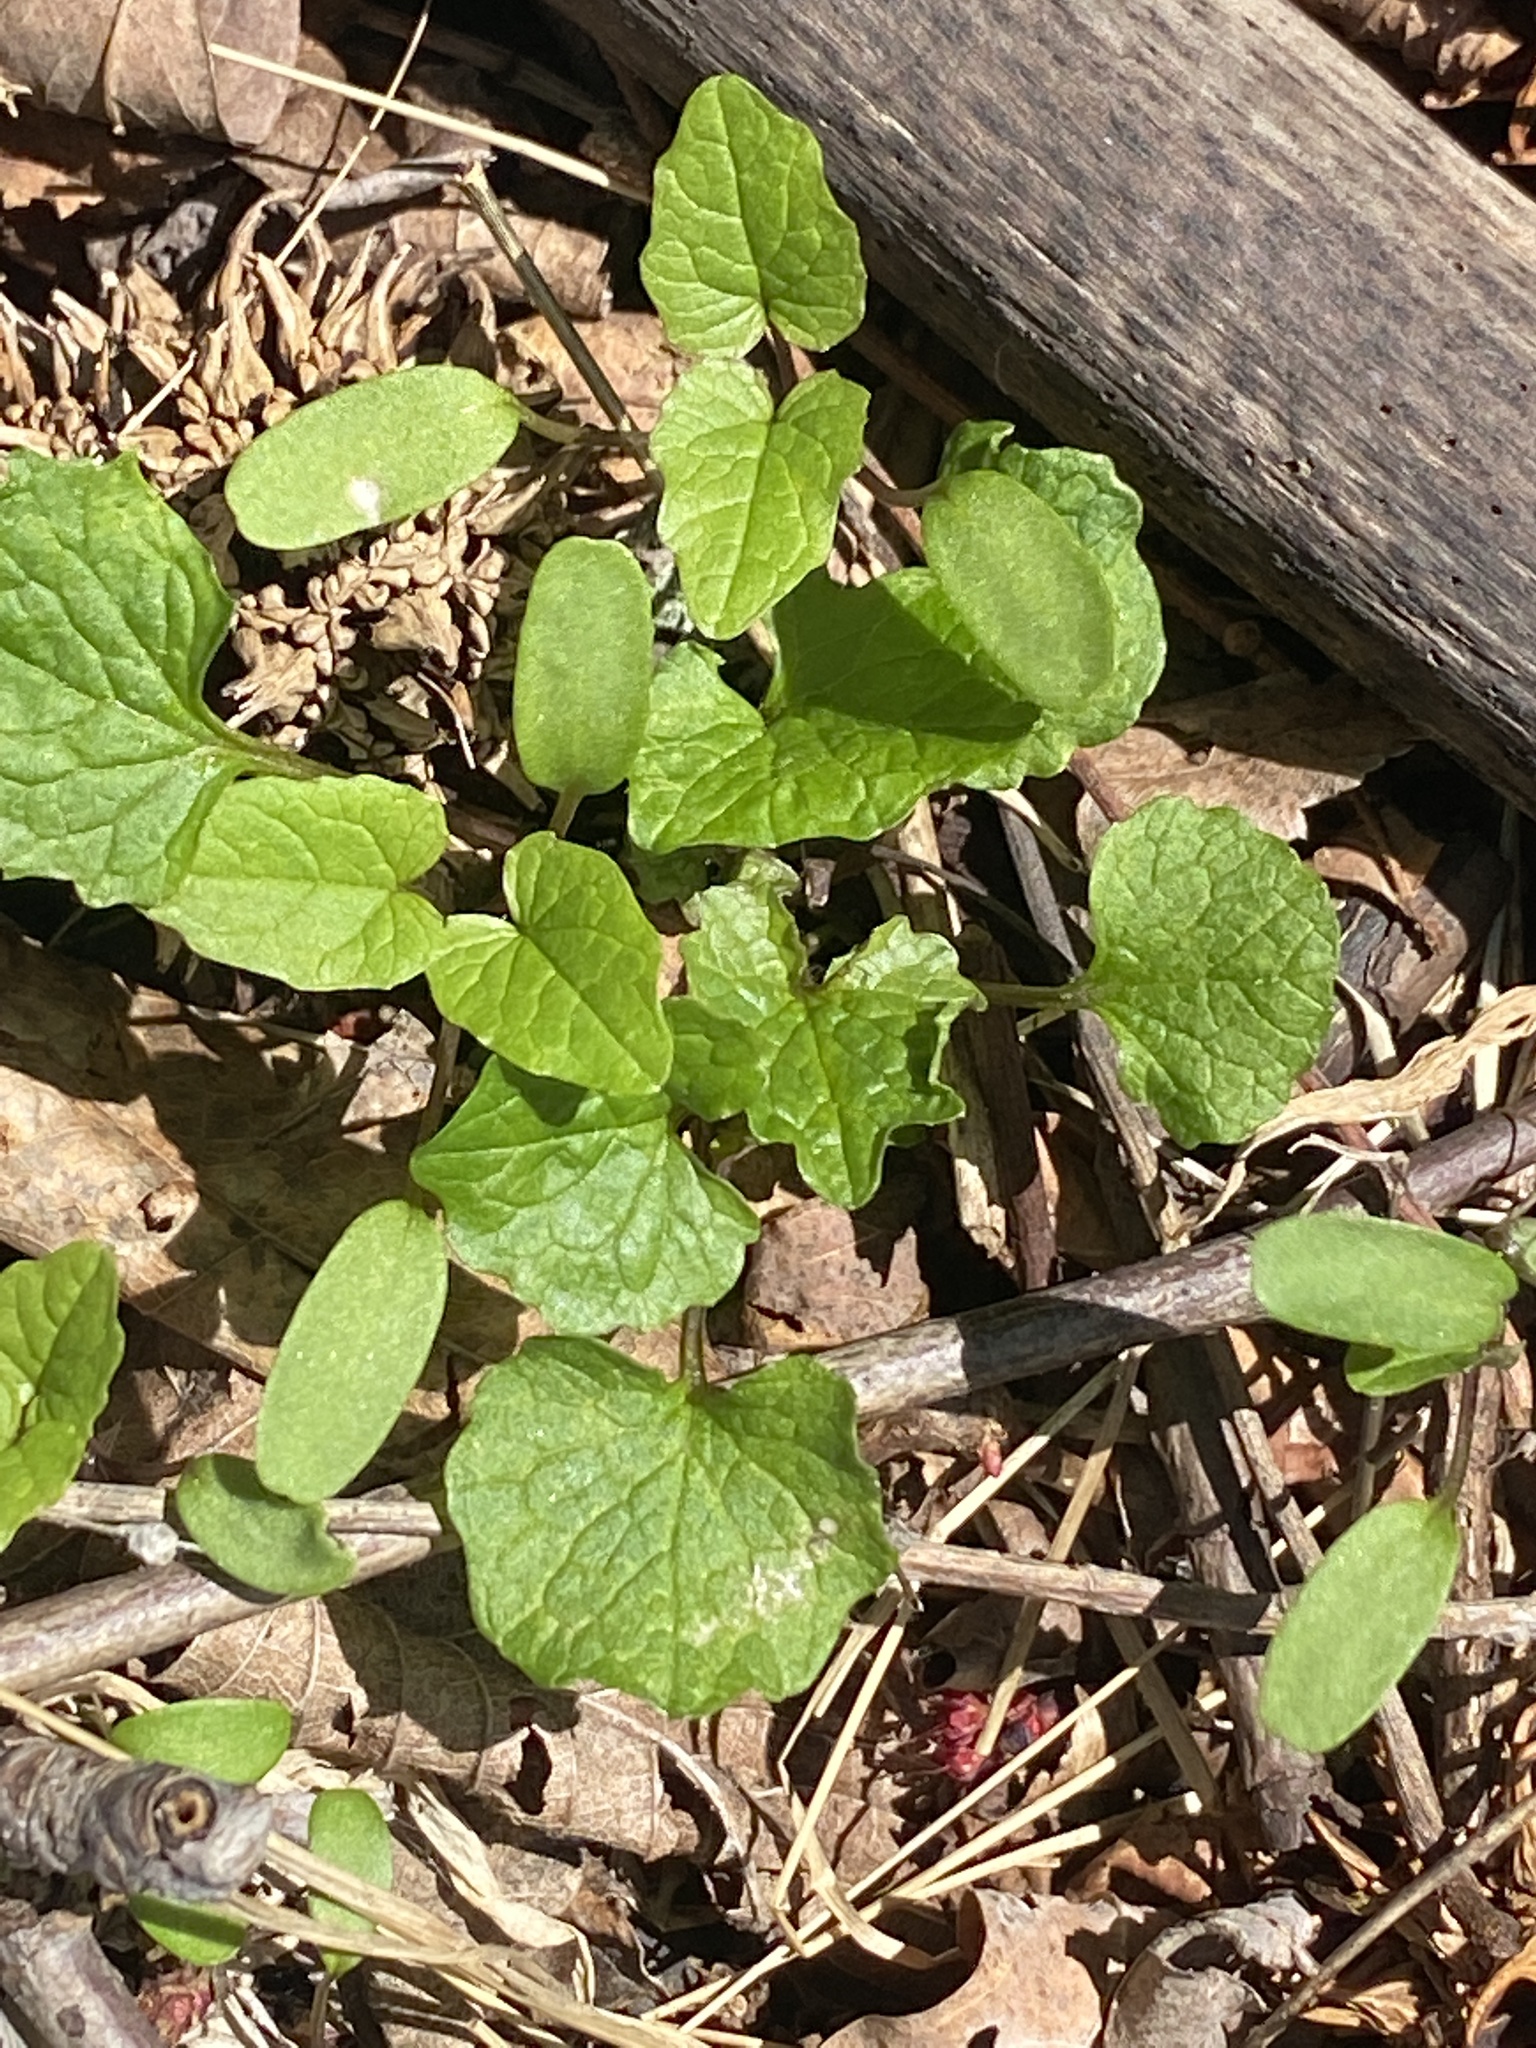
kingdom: Plantae
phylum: Tracheophyta
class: Magnoliopsida
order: Brassicales
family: Brassicaceae
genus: Alliaria
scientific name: Alliaria petiolata
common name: Garlic mustard
